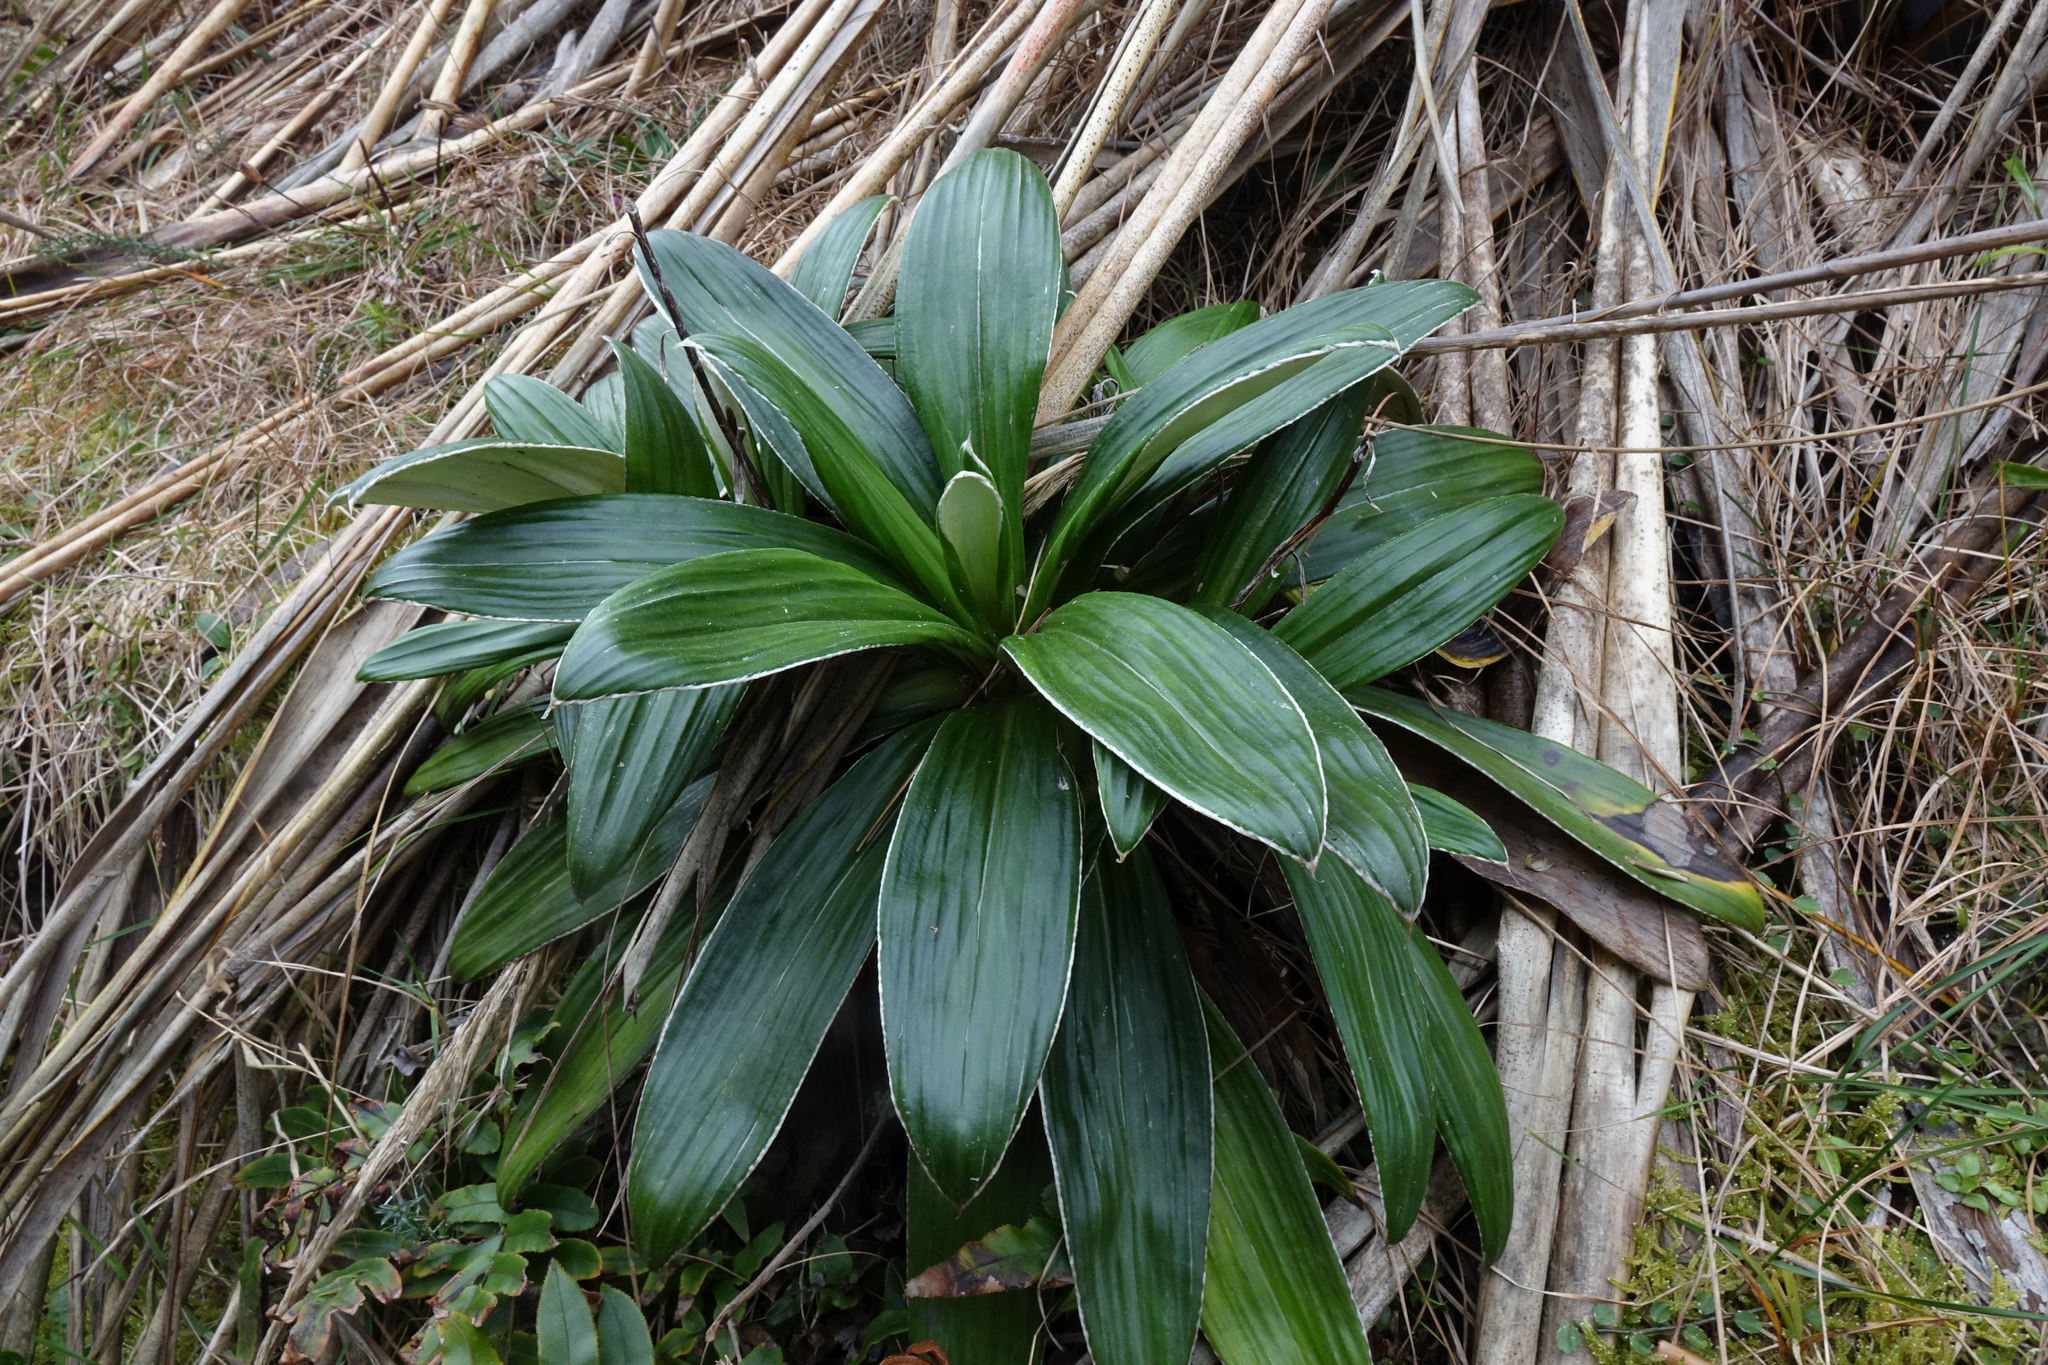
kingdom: Plantae
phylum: Tracheophyta
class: Magnoliopsida
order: Asterales
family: Asteraceae
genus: Celmisia
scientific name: Celmisia semicordata
